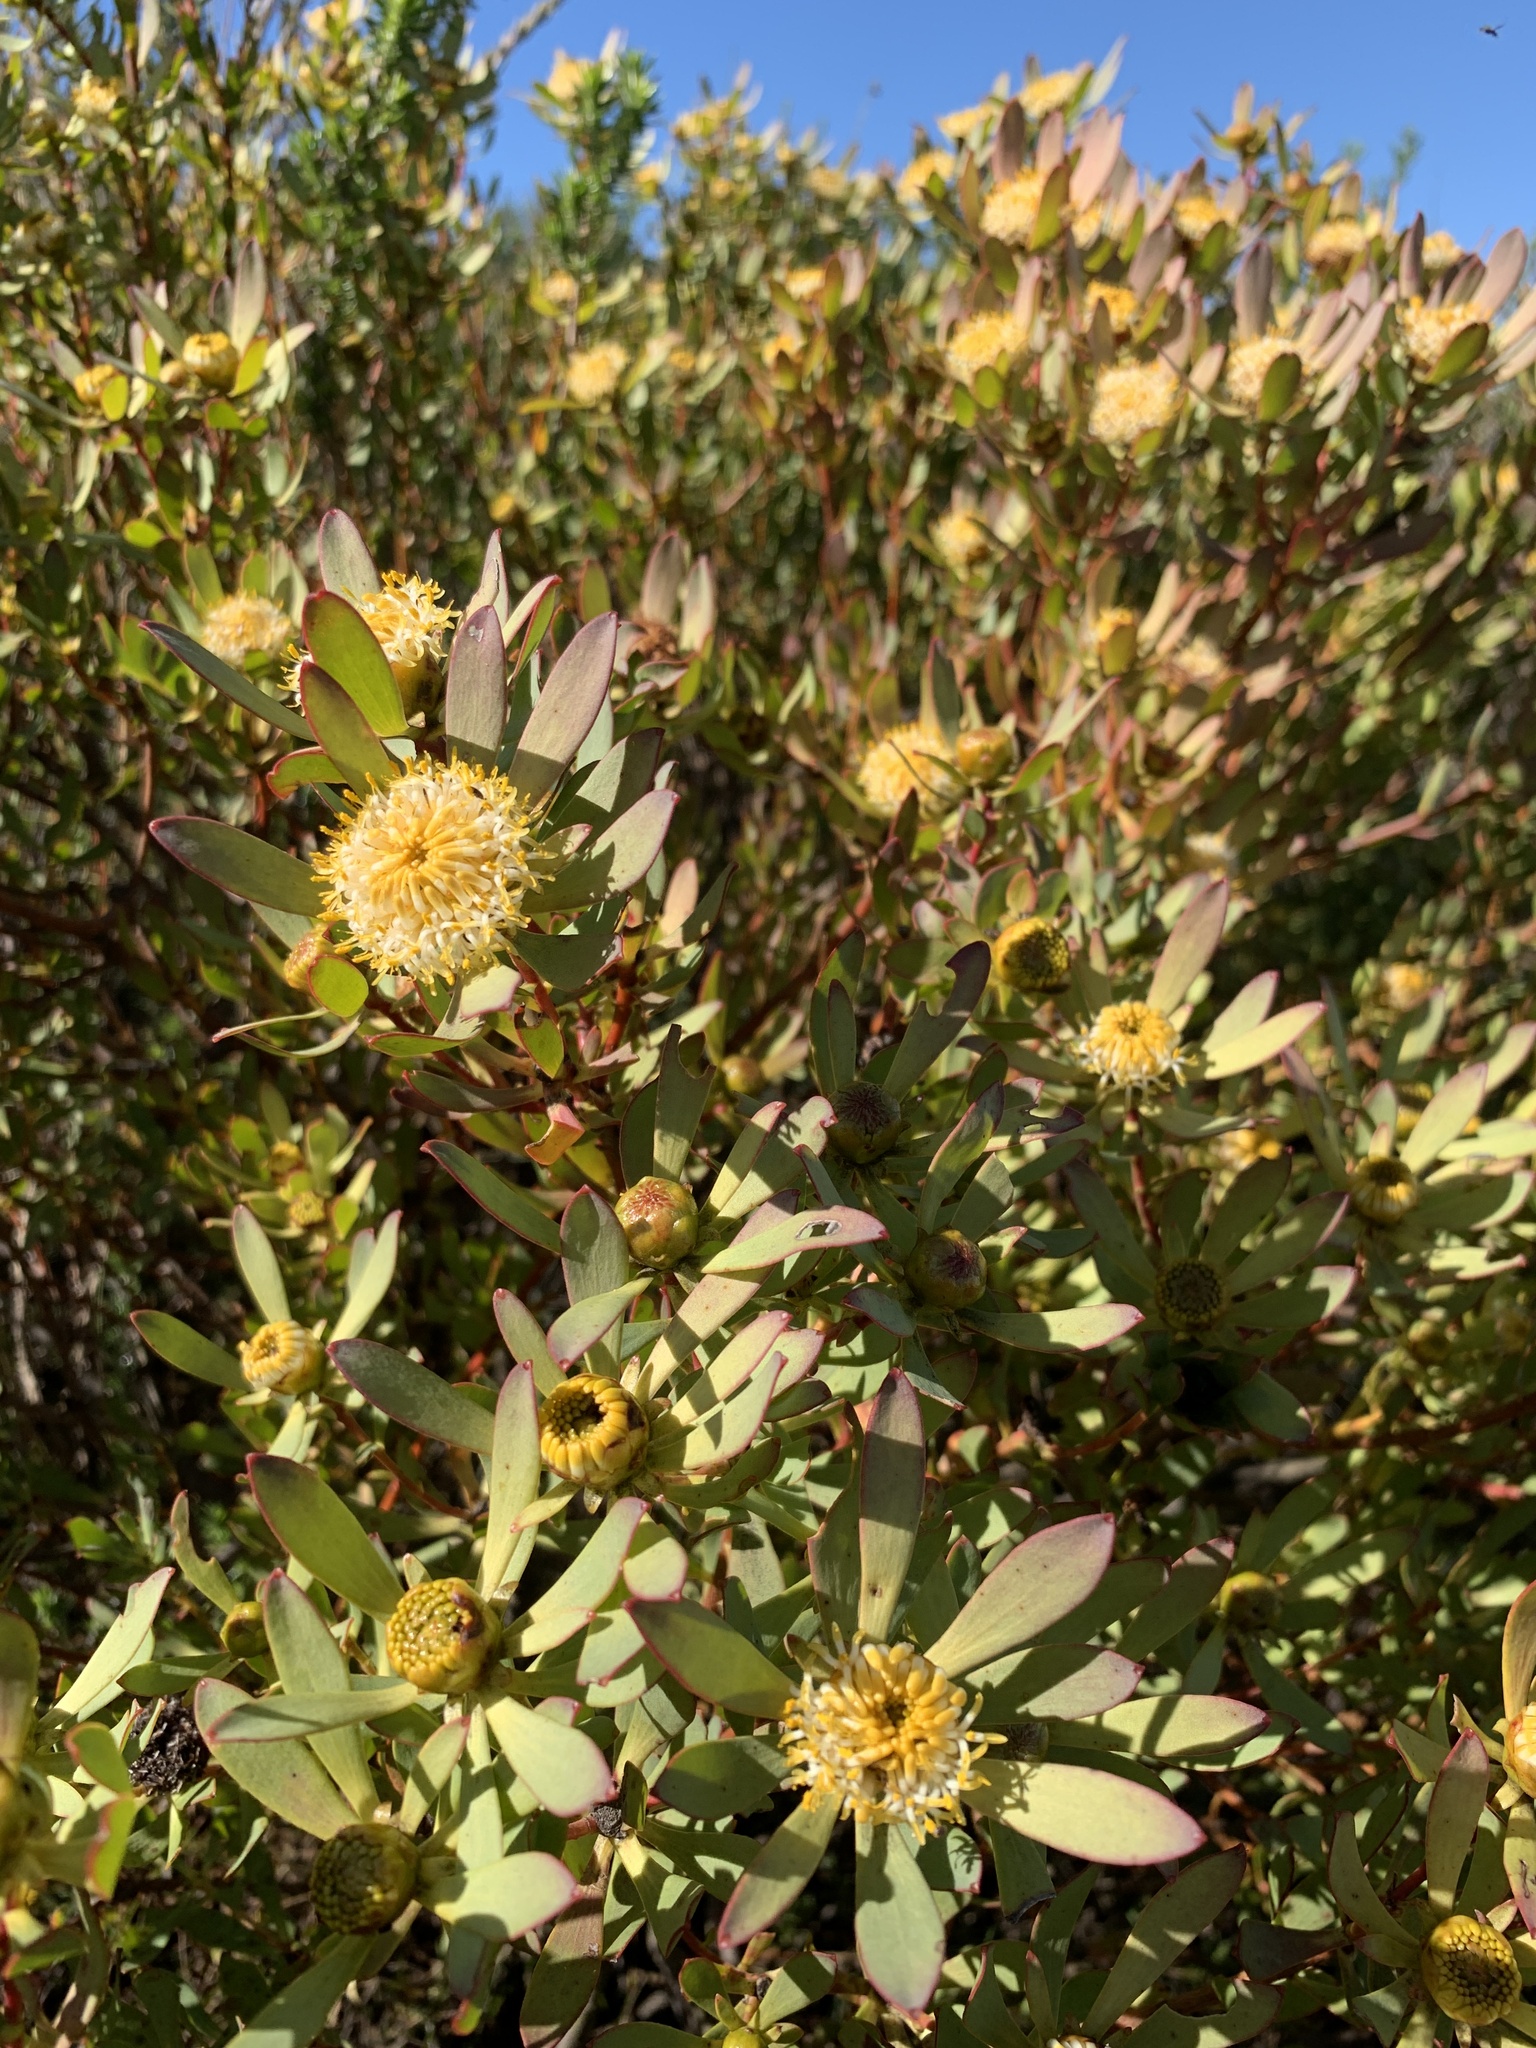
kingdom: Plantae
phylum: Tracheophyta
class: Magnoliopsida
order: Proteales
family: Proteaceae
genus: Leucadendron
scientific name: Leucadendron glaberrimum
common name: Common oily conebush
